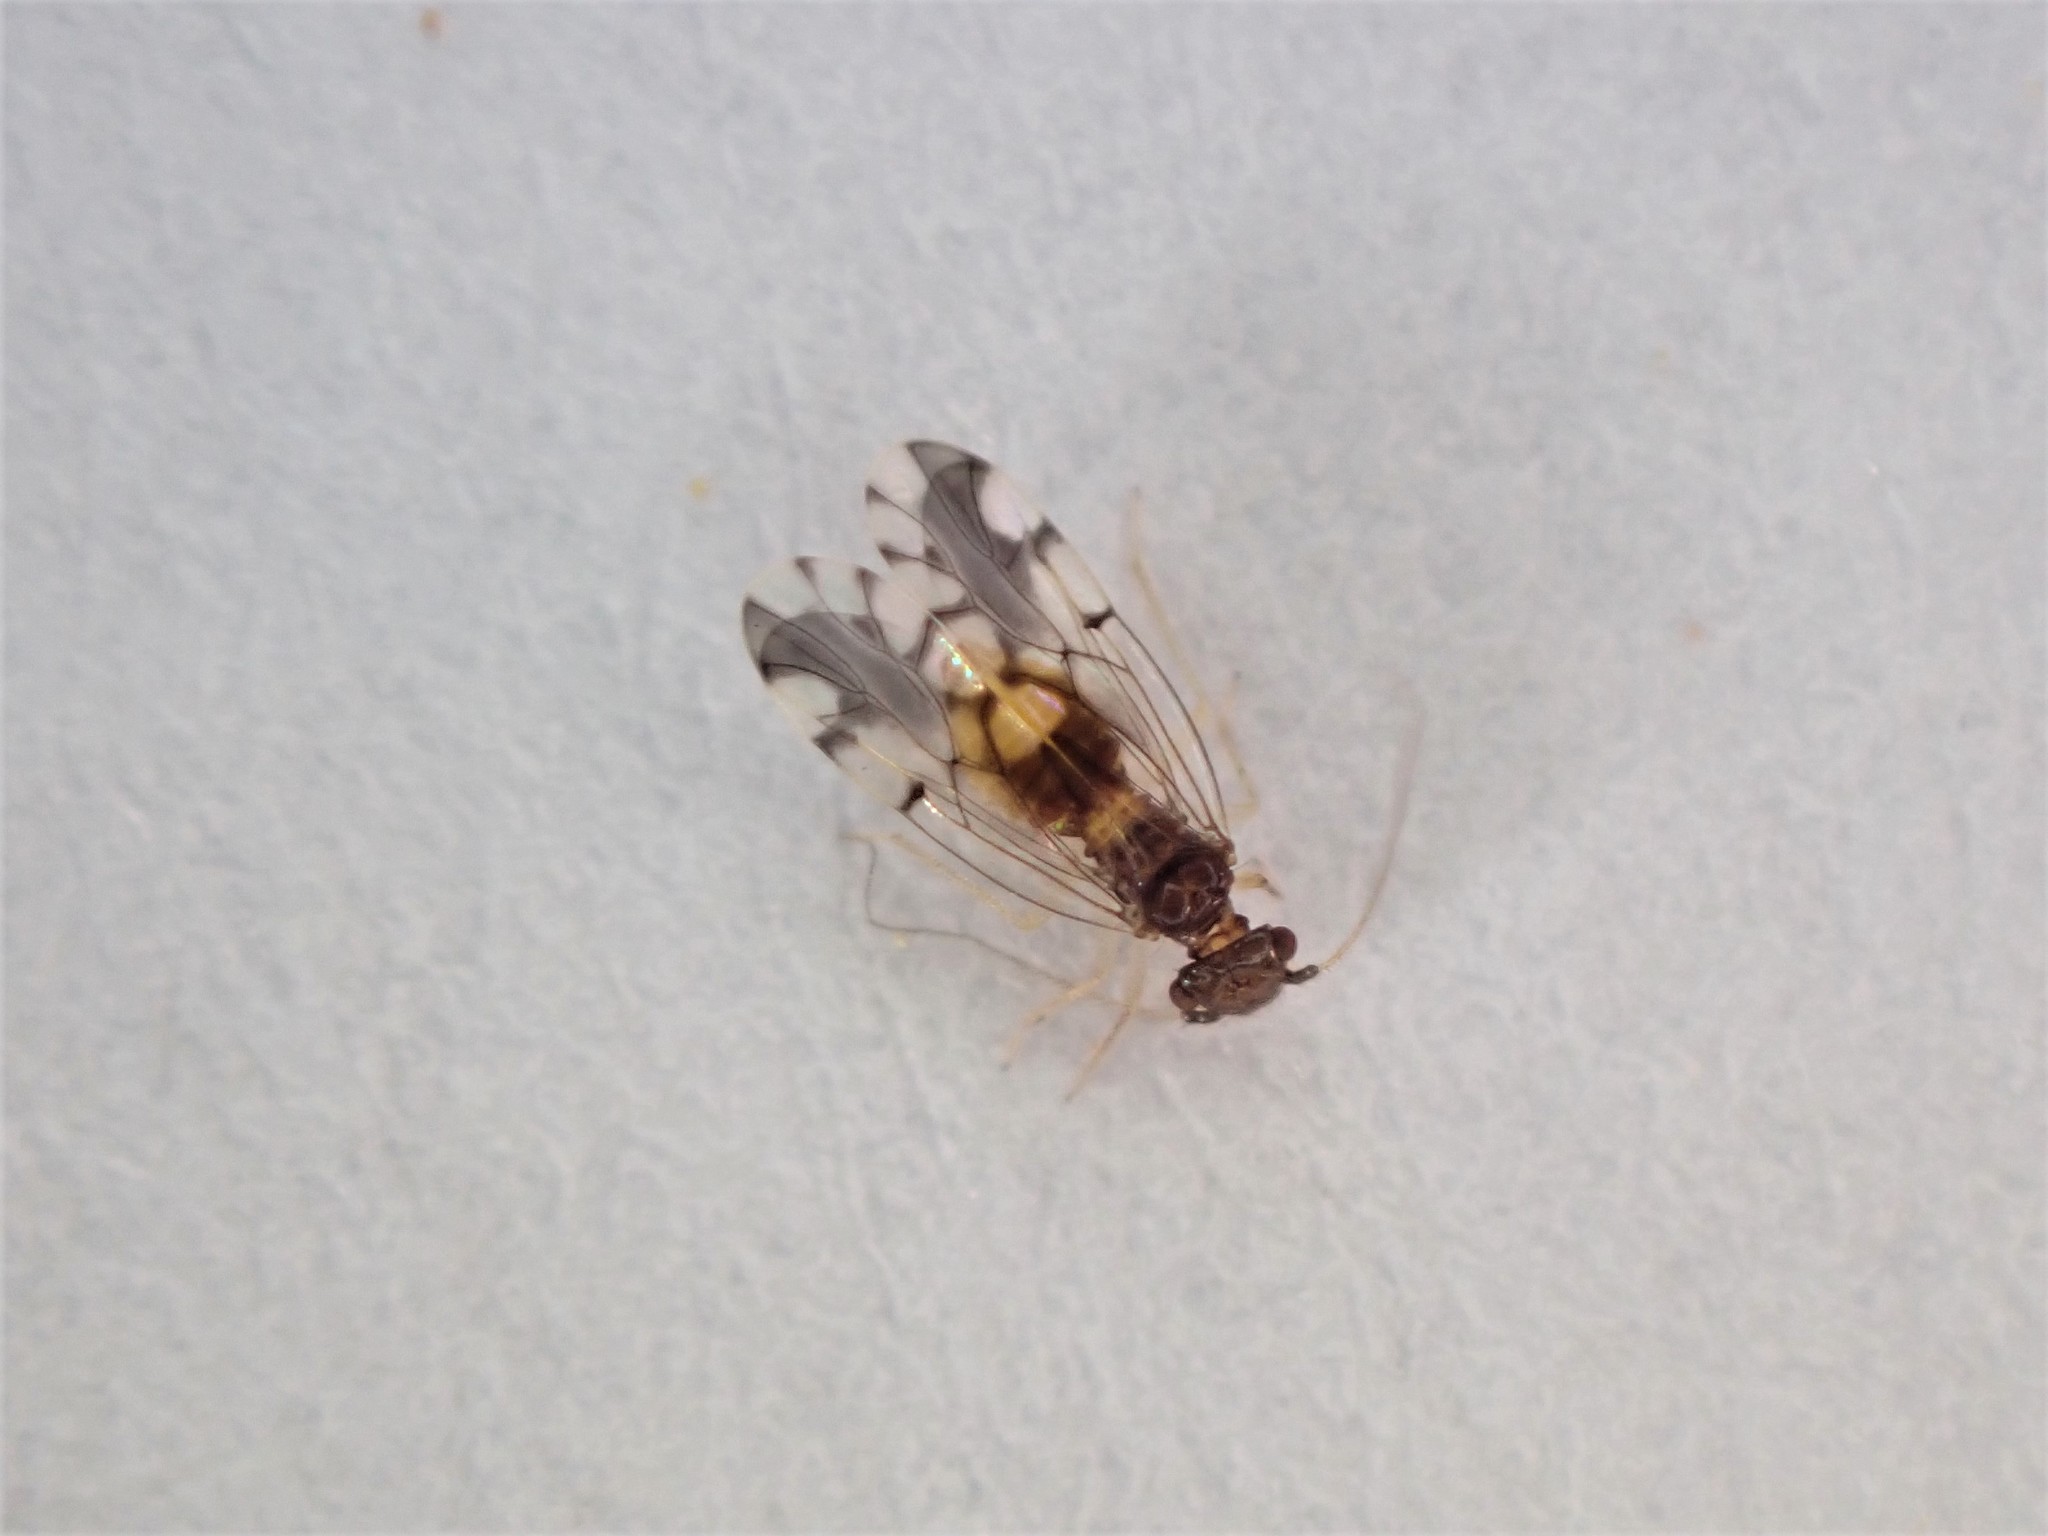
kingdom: Animalia
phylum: Arthropoda
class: Insecta
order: Psocodea
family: Ectopsocidae
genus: Ectopsocus
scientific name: Ectopsocus gracilis
